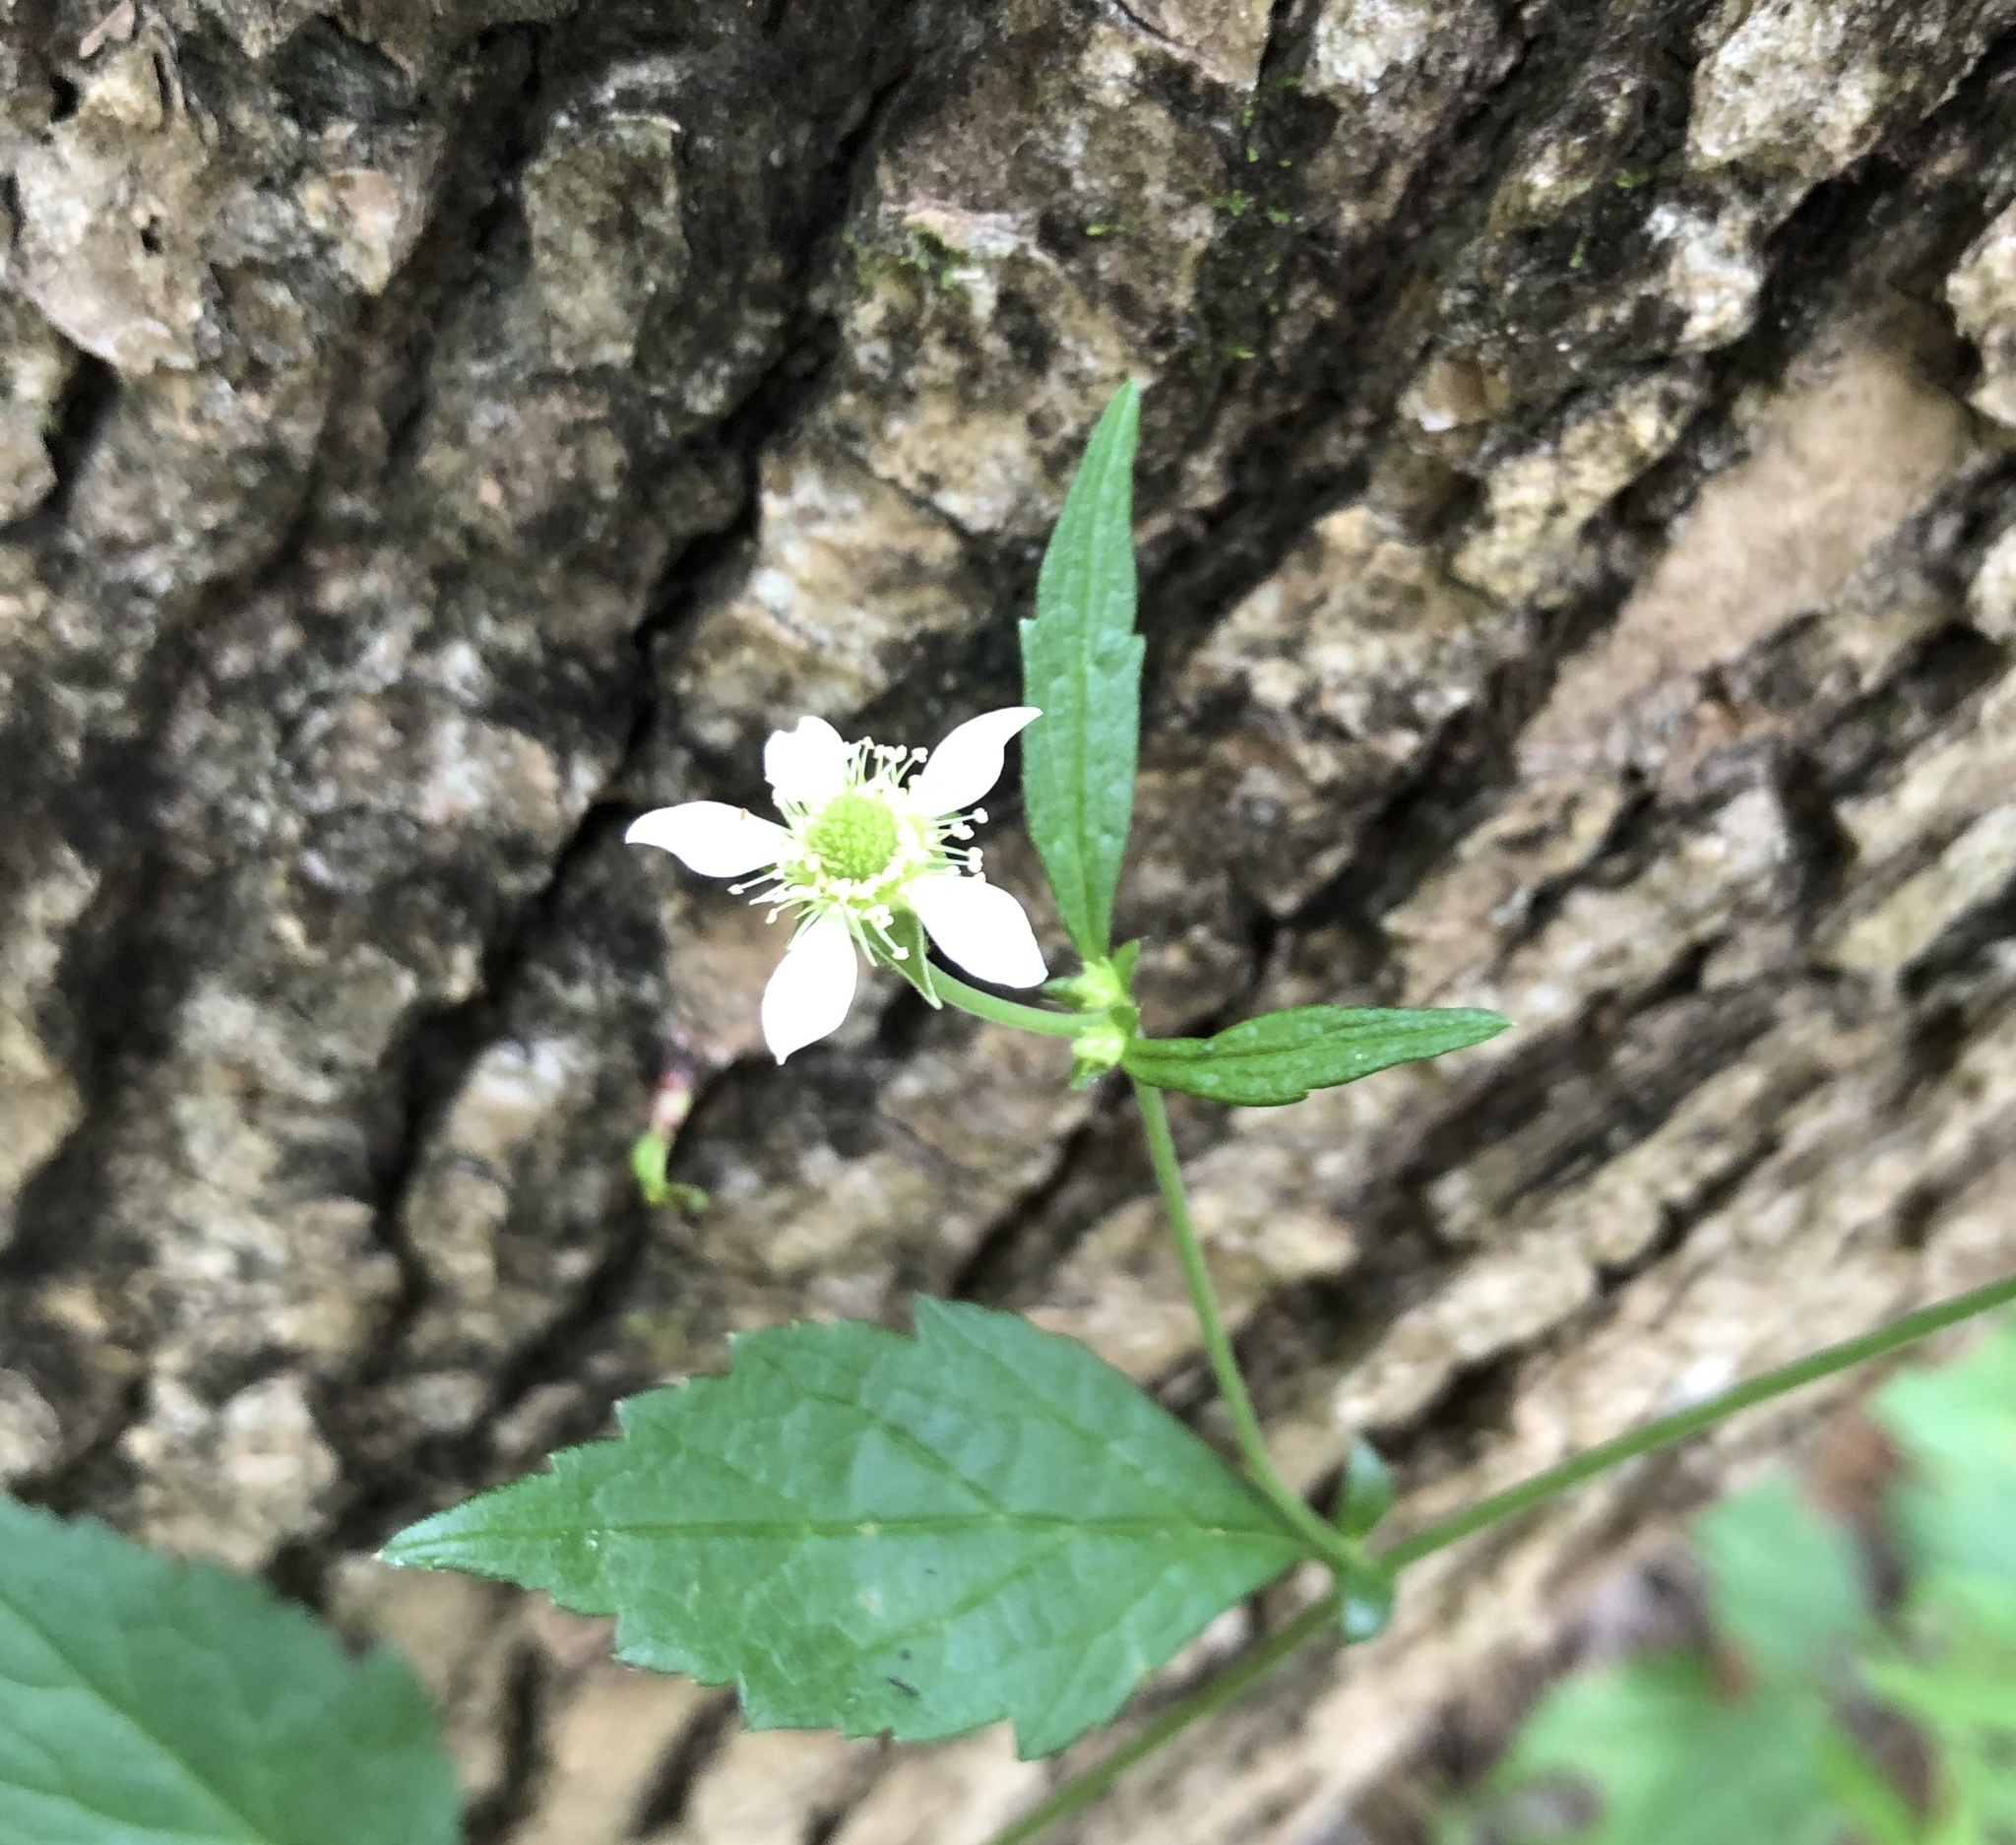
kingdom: Plantae
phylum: Tracheophyta
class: Magnoliopsida
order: Rosales
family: Rosaceae
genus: Geum
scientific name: Geum canadense
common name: White avens
